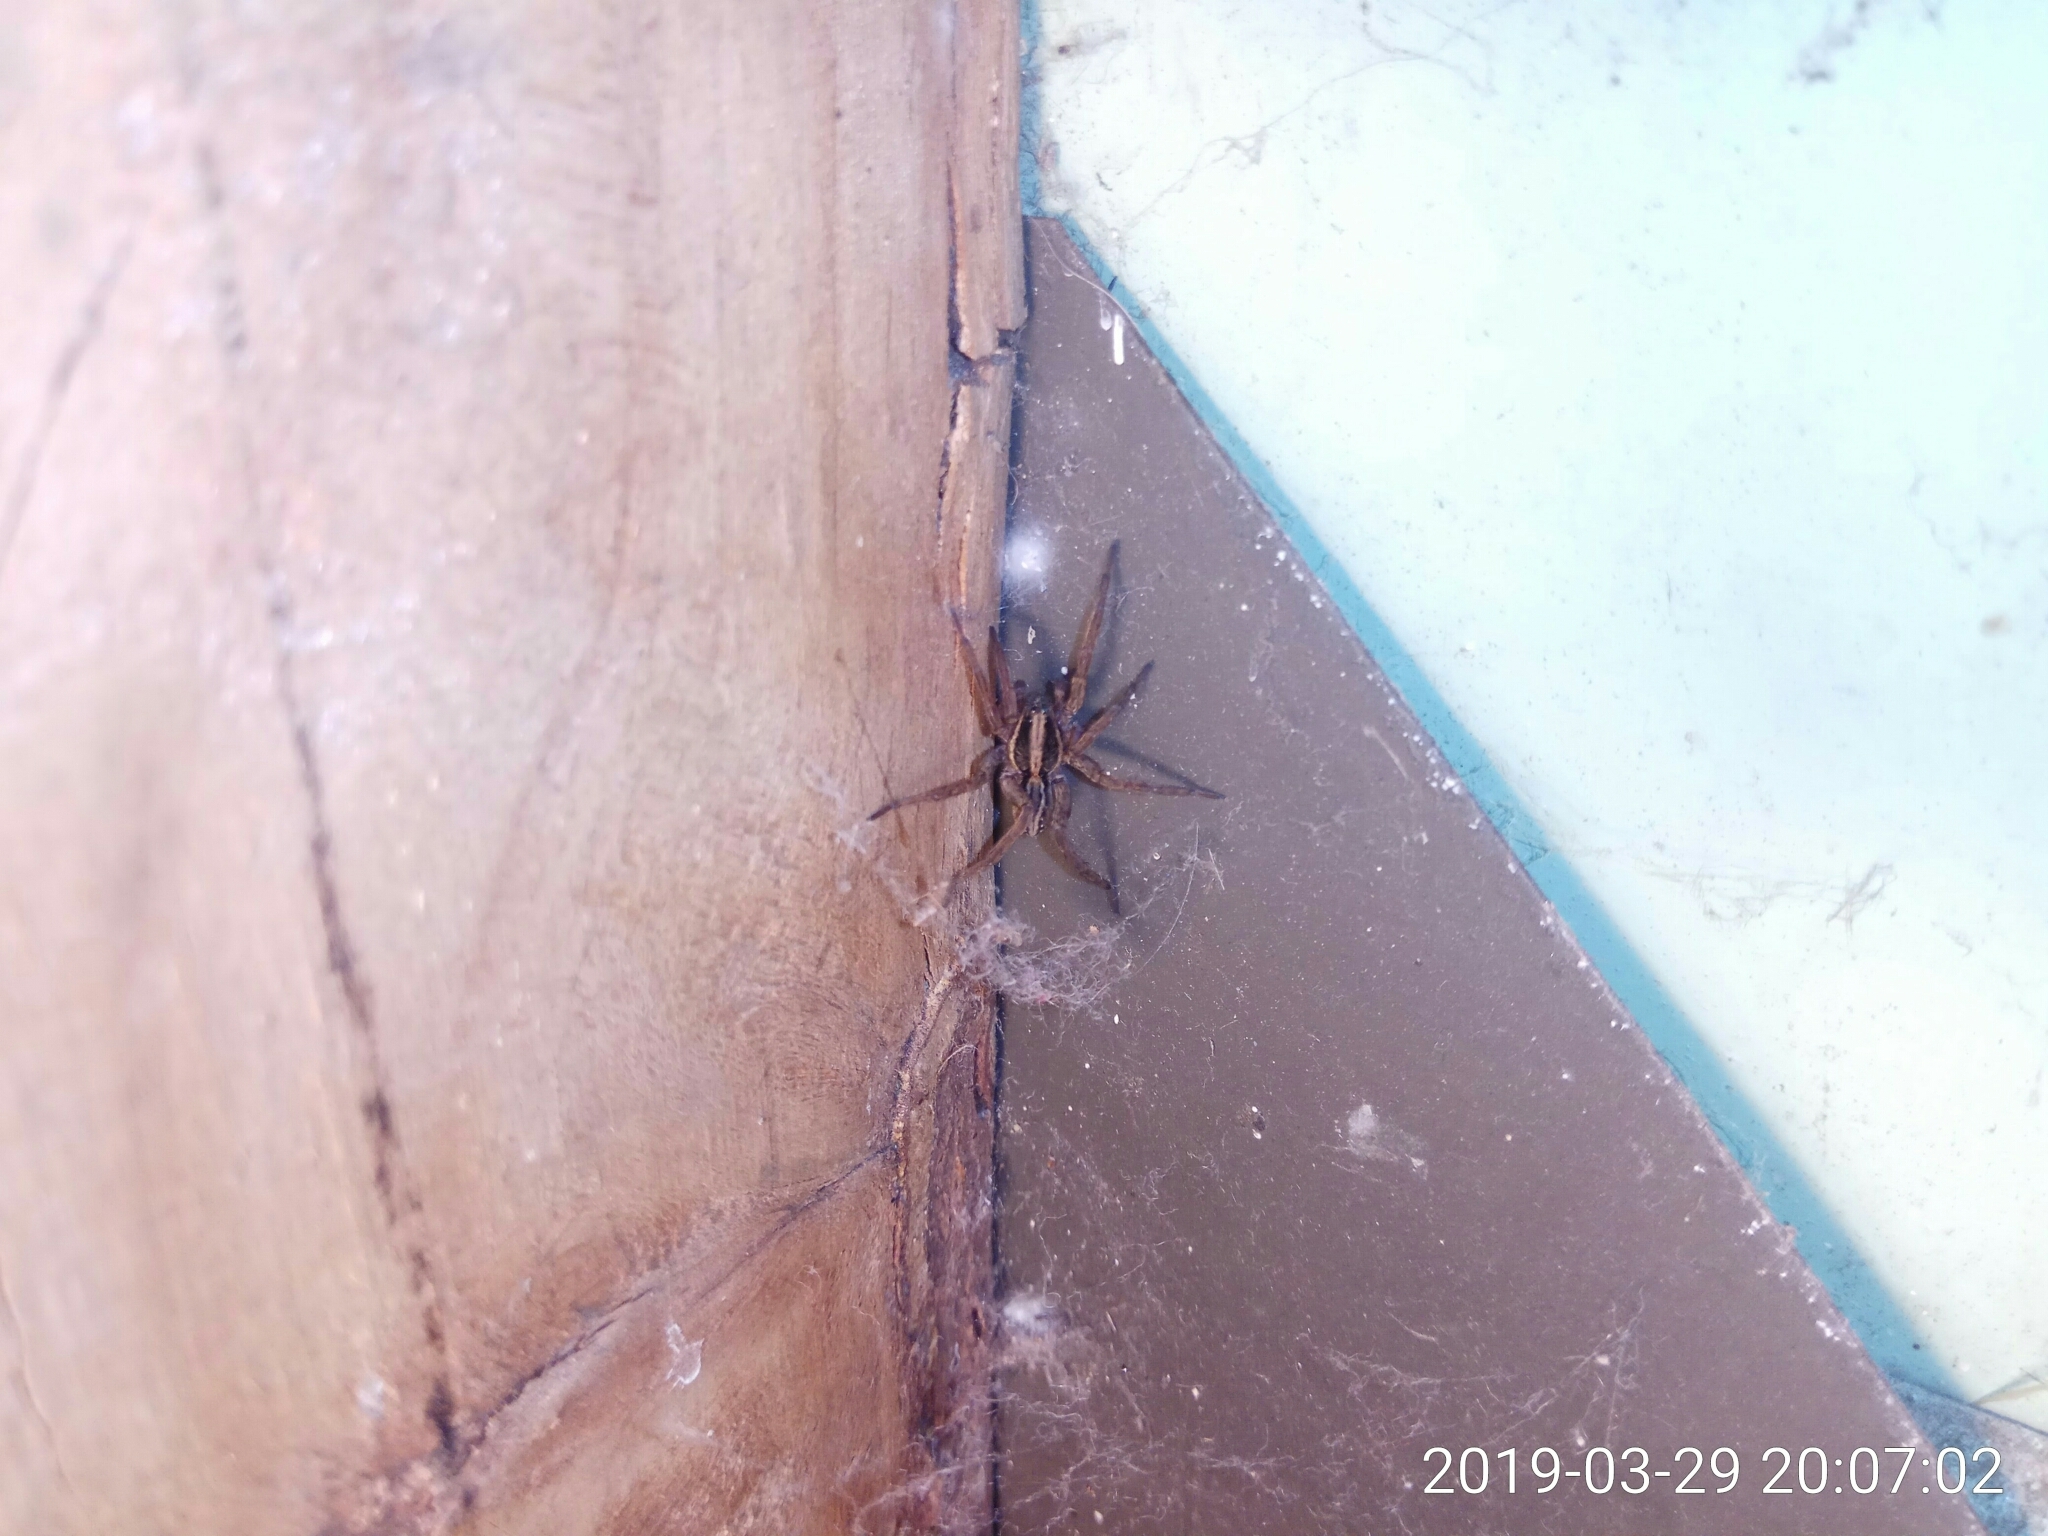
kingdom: Animalia
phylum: Arthropoda
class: Arachnida
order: Araneae
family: Lycosidae
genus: Venatrix
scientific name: Venatrix furcillata
